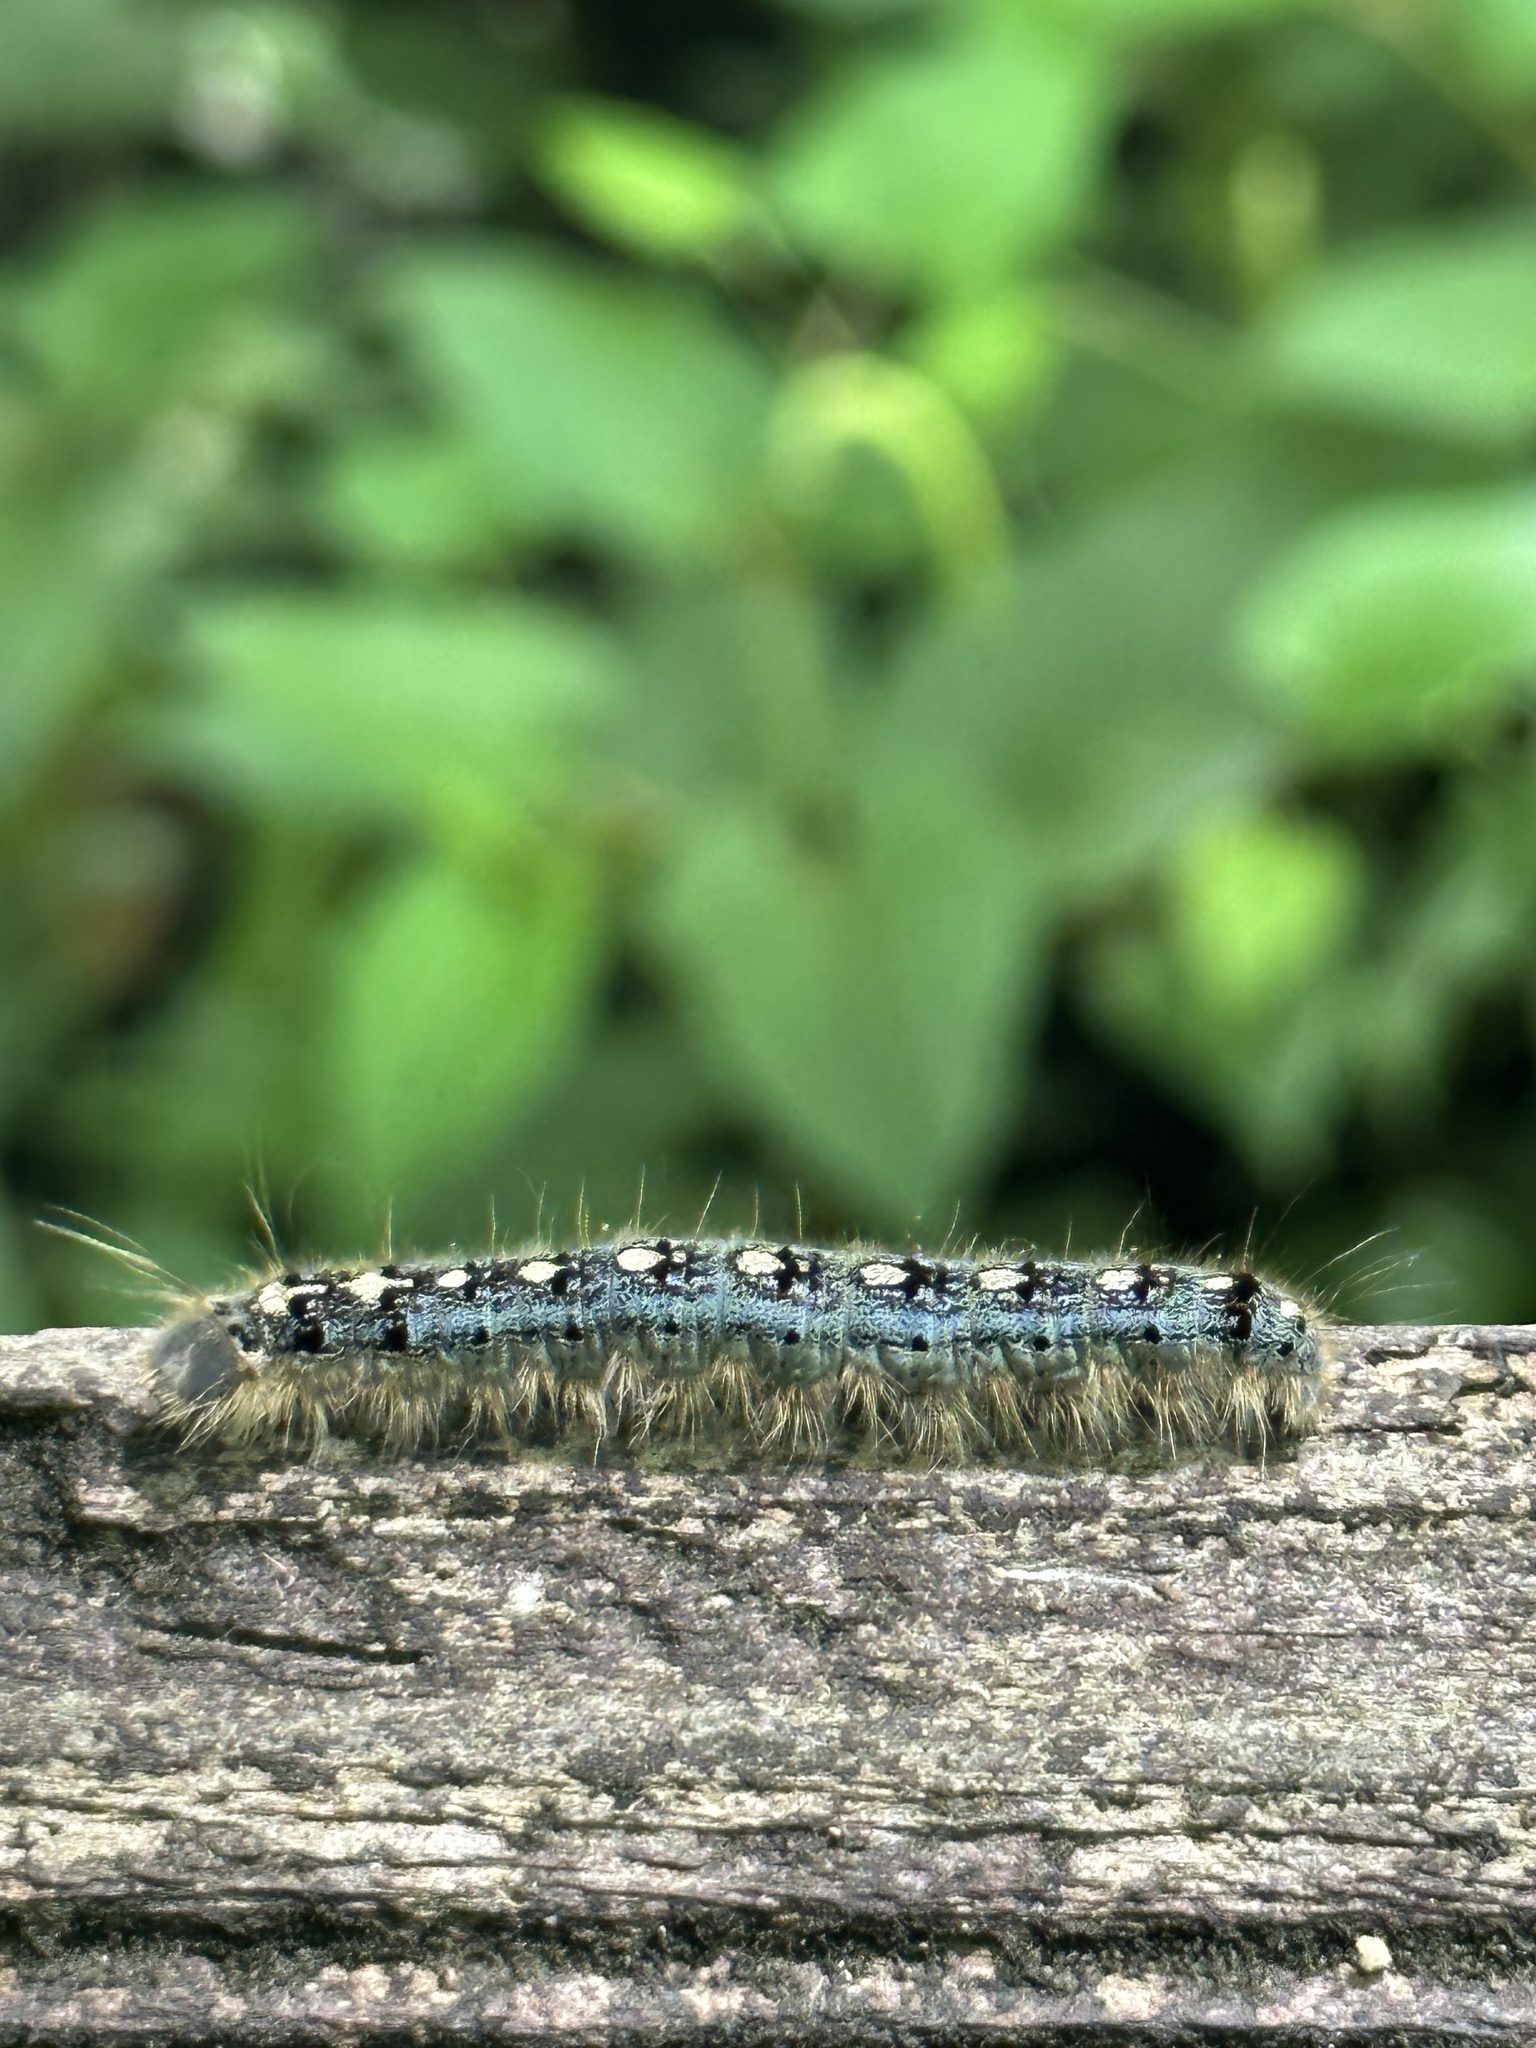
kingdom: Animalia
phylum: Arthropoda
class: Insecta
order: Lepidoptera
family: Lasiocampidae
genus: Malacosoma
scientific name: Malacosoma disstria
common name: Forest tent caterpillar
